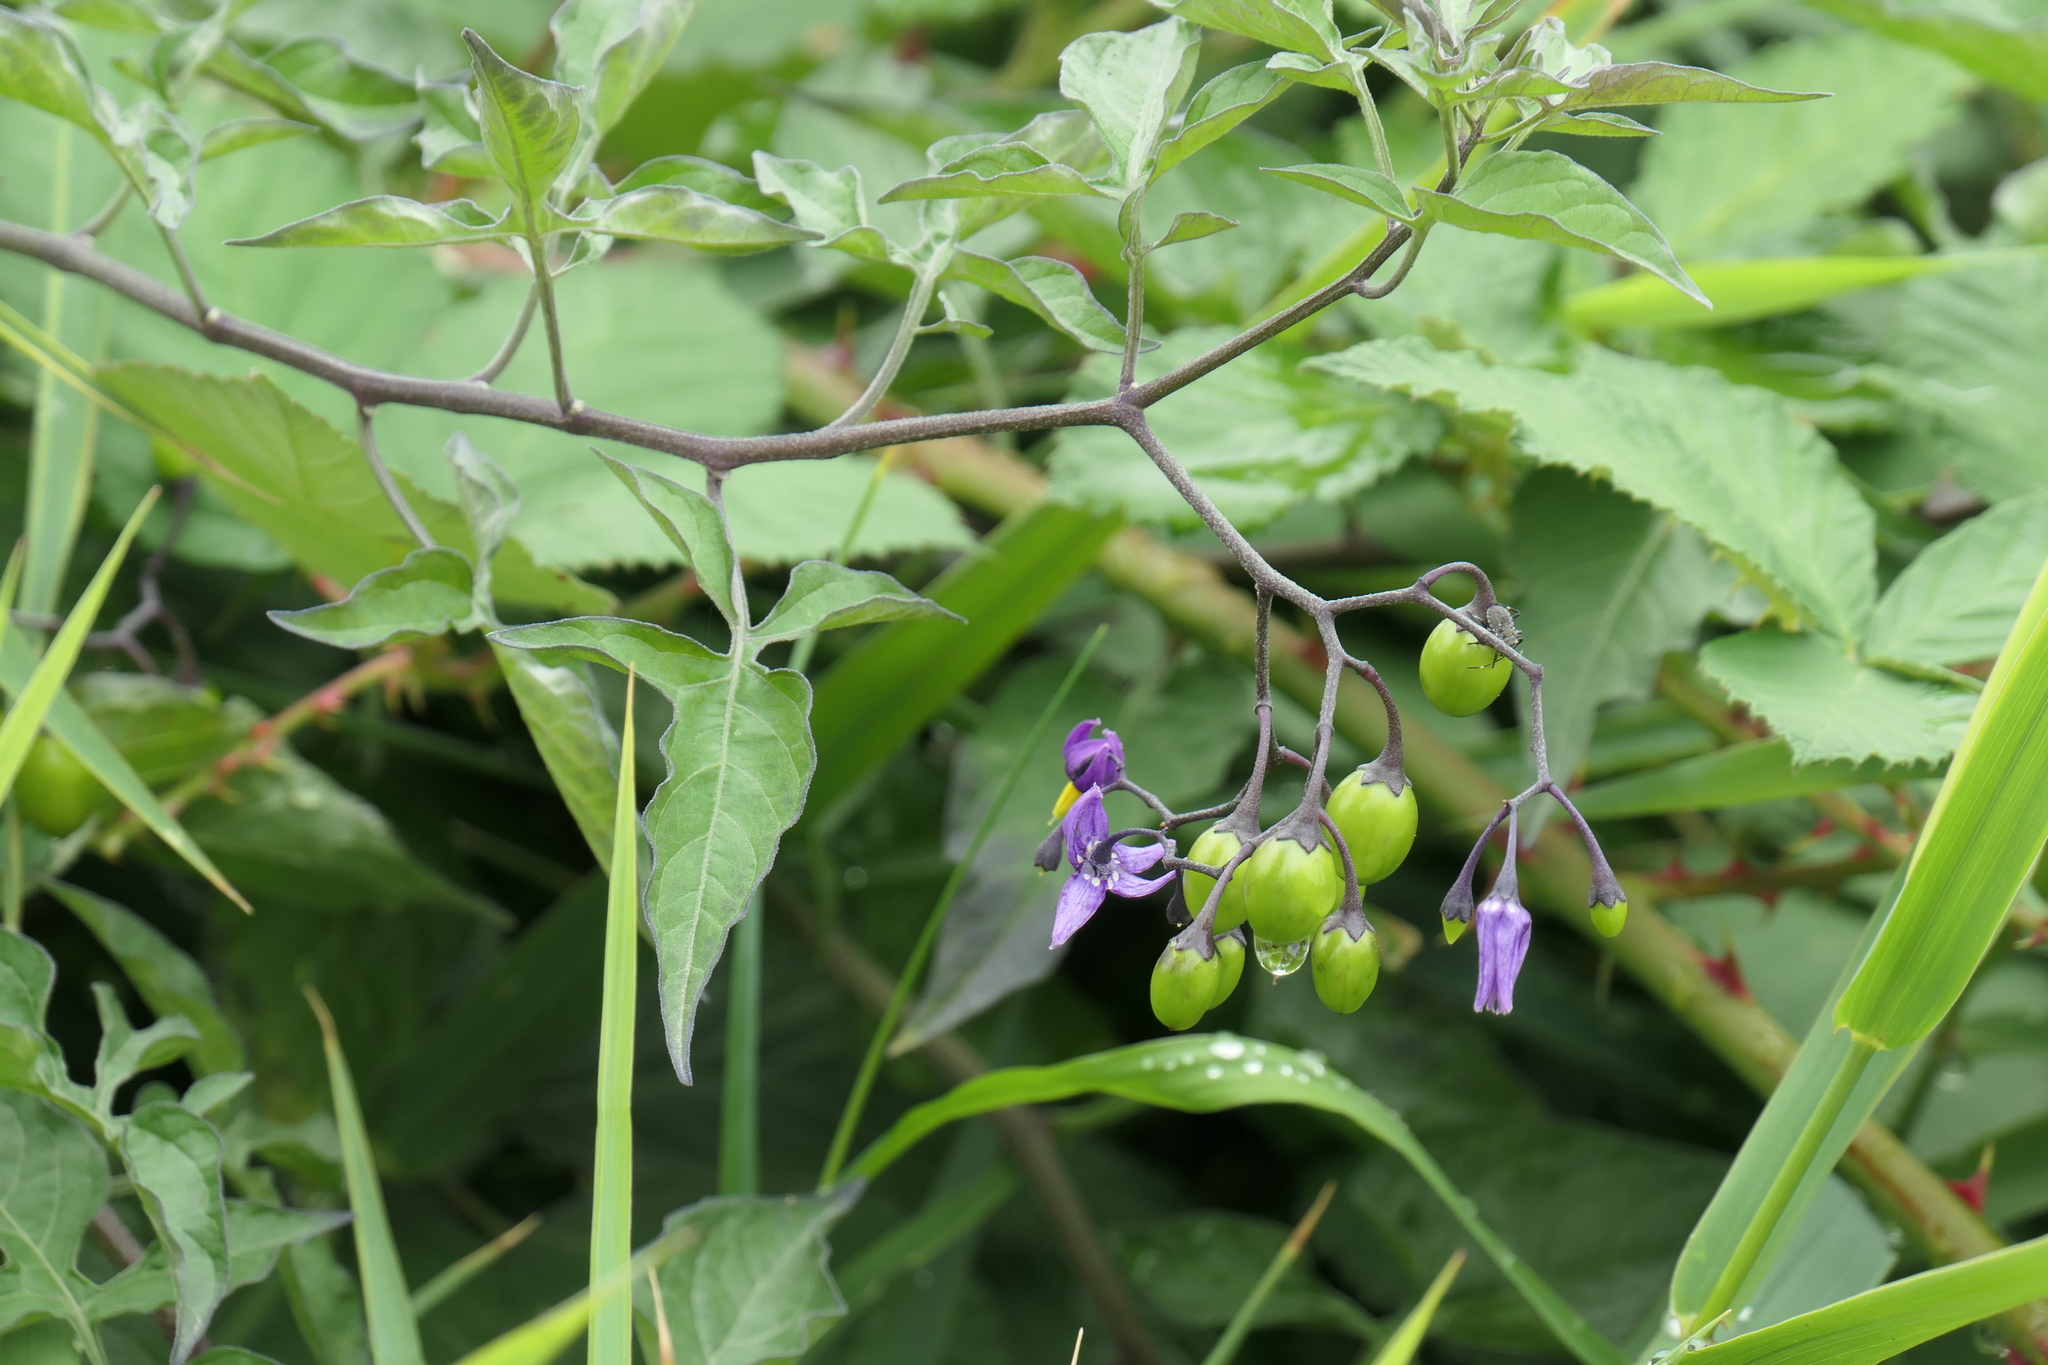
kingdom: Plantae
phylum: Tracheophyta
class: Magnoliopsida
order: Solanales
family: Solanaceae
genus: Solanum
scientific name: Solanum dulcamara
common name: Climbing nightshade
